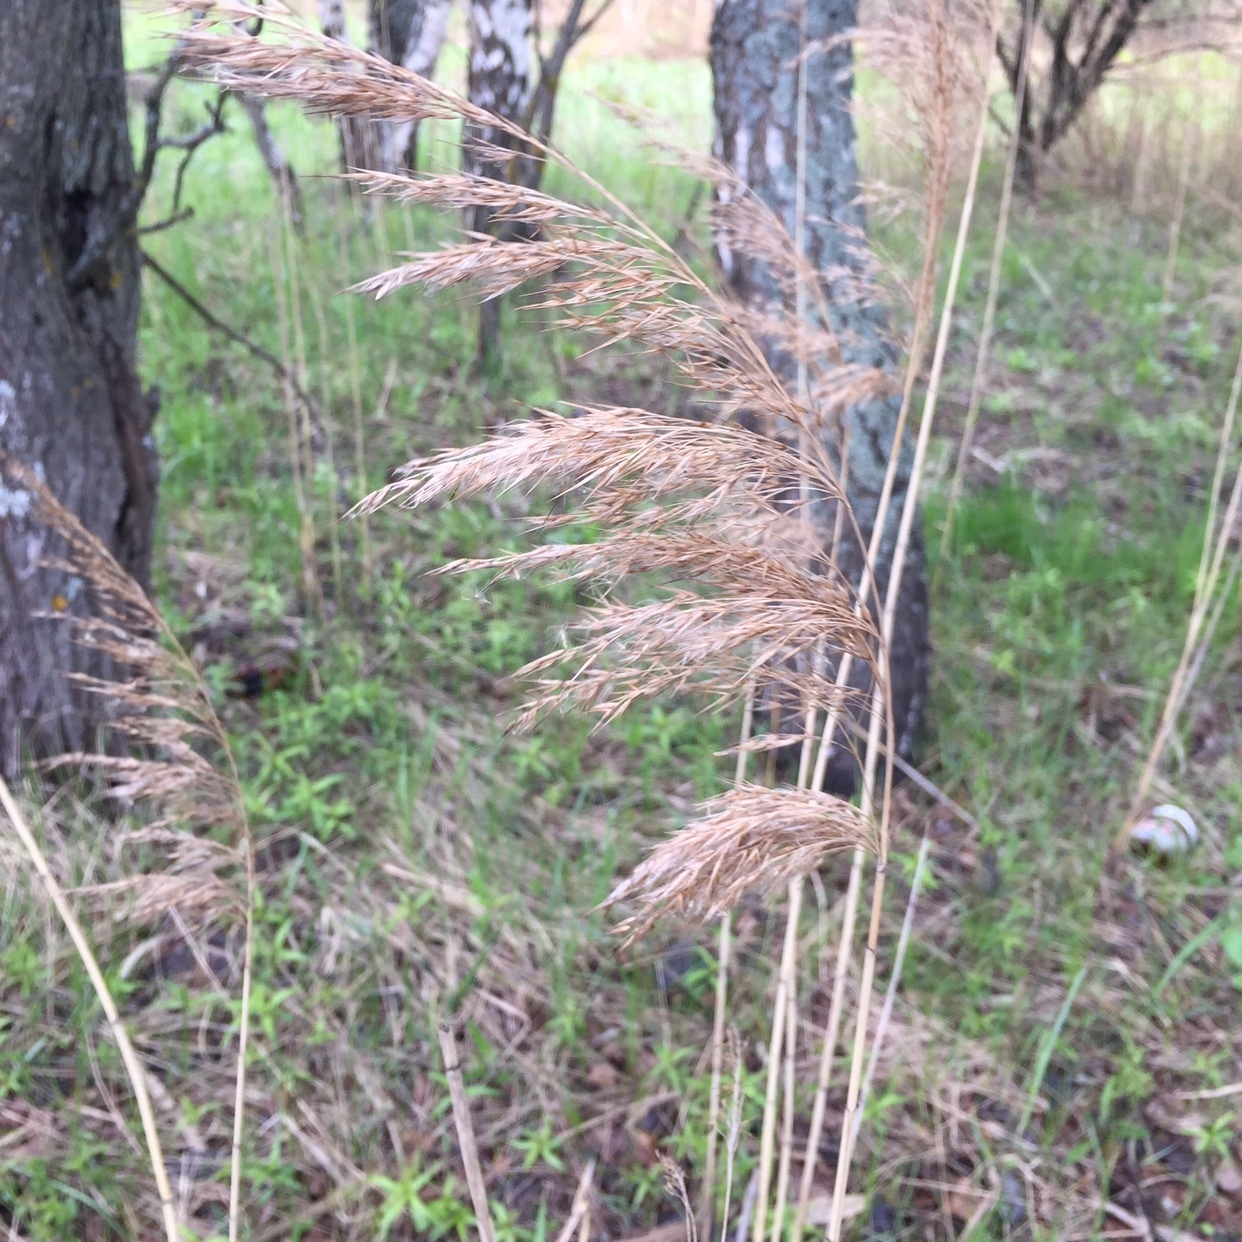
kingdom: Plantae
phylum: Tracheophyta
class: Liliopsida
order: Poales
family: Poaceae
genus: Phragmites
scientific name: Phragmites australis
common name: Common reed
